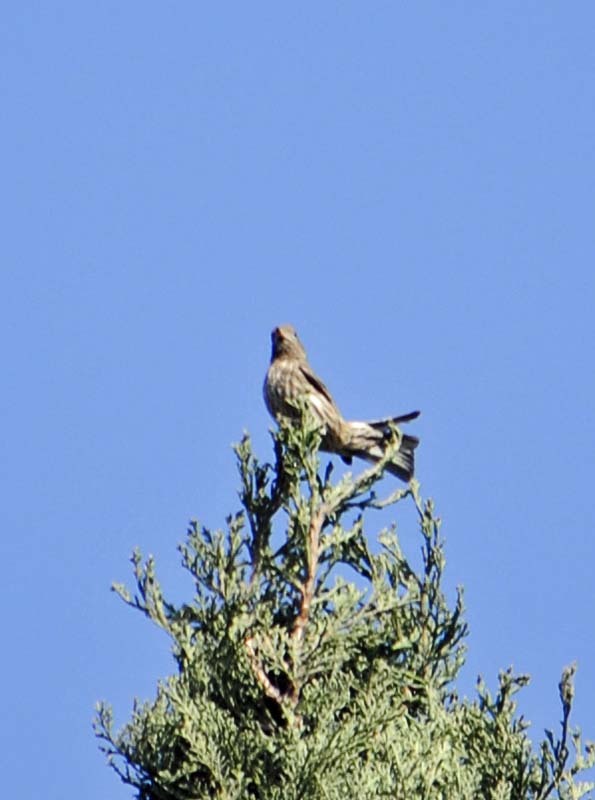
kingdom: Animalia
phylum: Chordata
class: Aves
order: Passeriformes
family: Fringillidae
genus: Haemorhous
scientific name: Haemorhous mexicanus
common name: House finch
